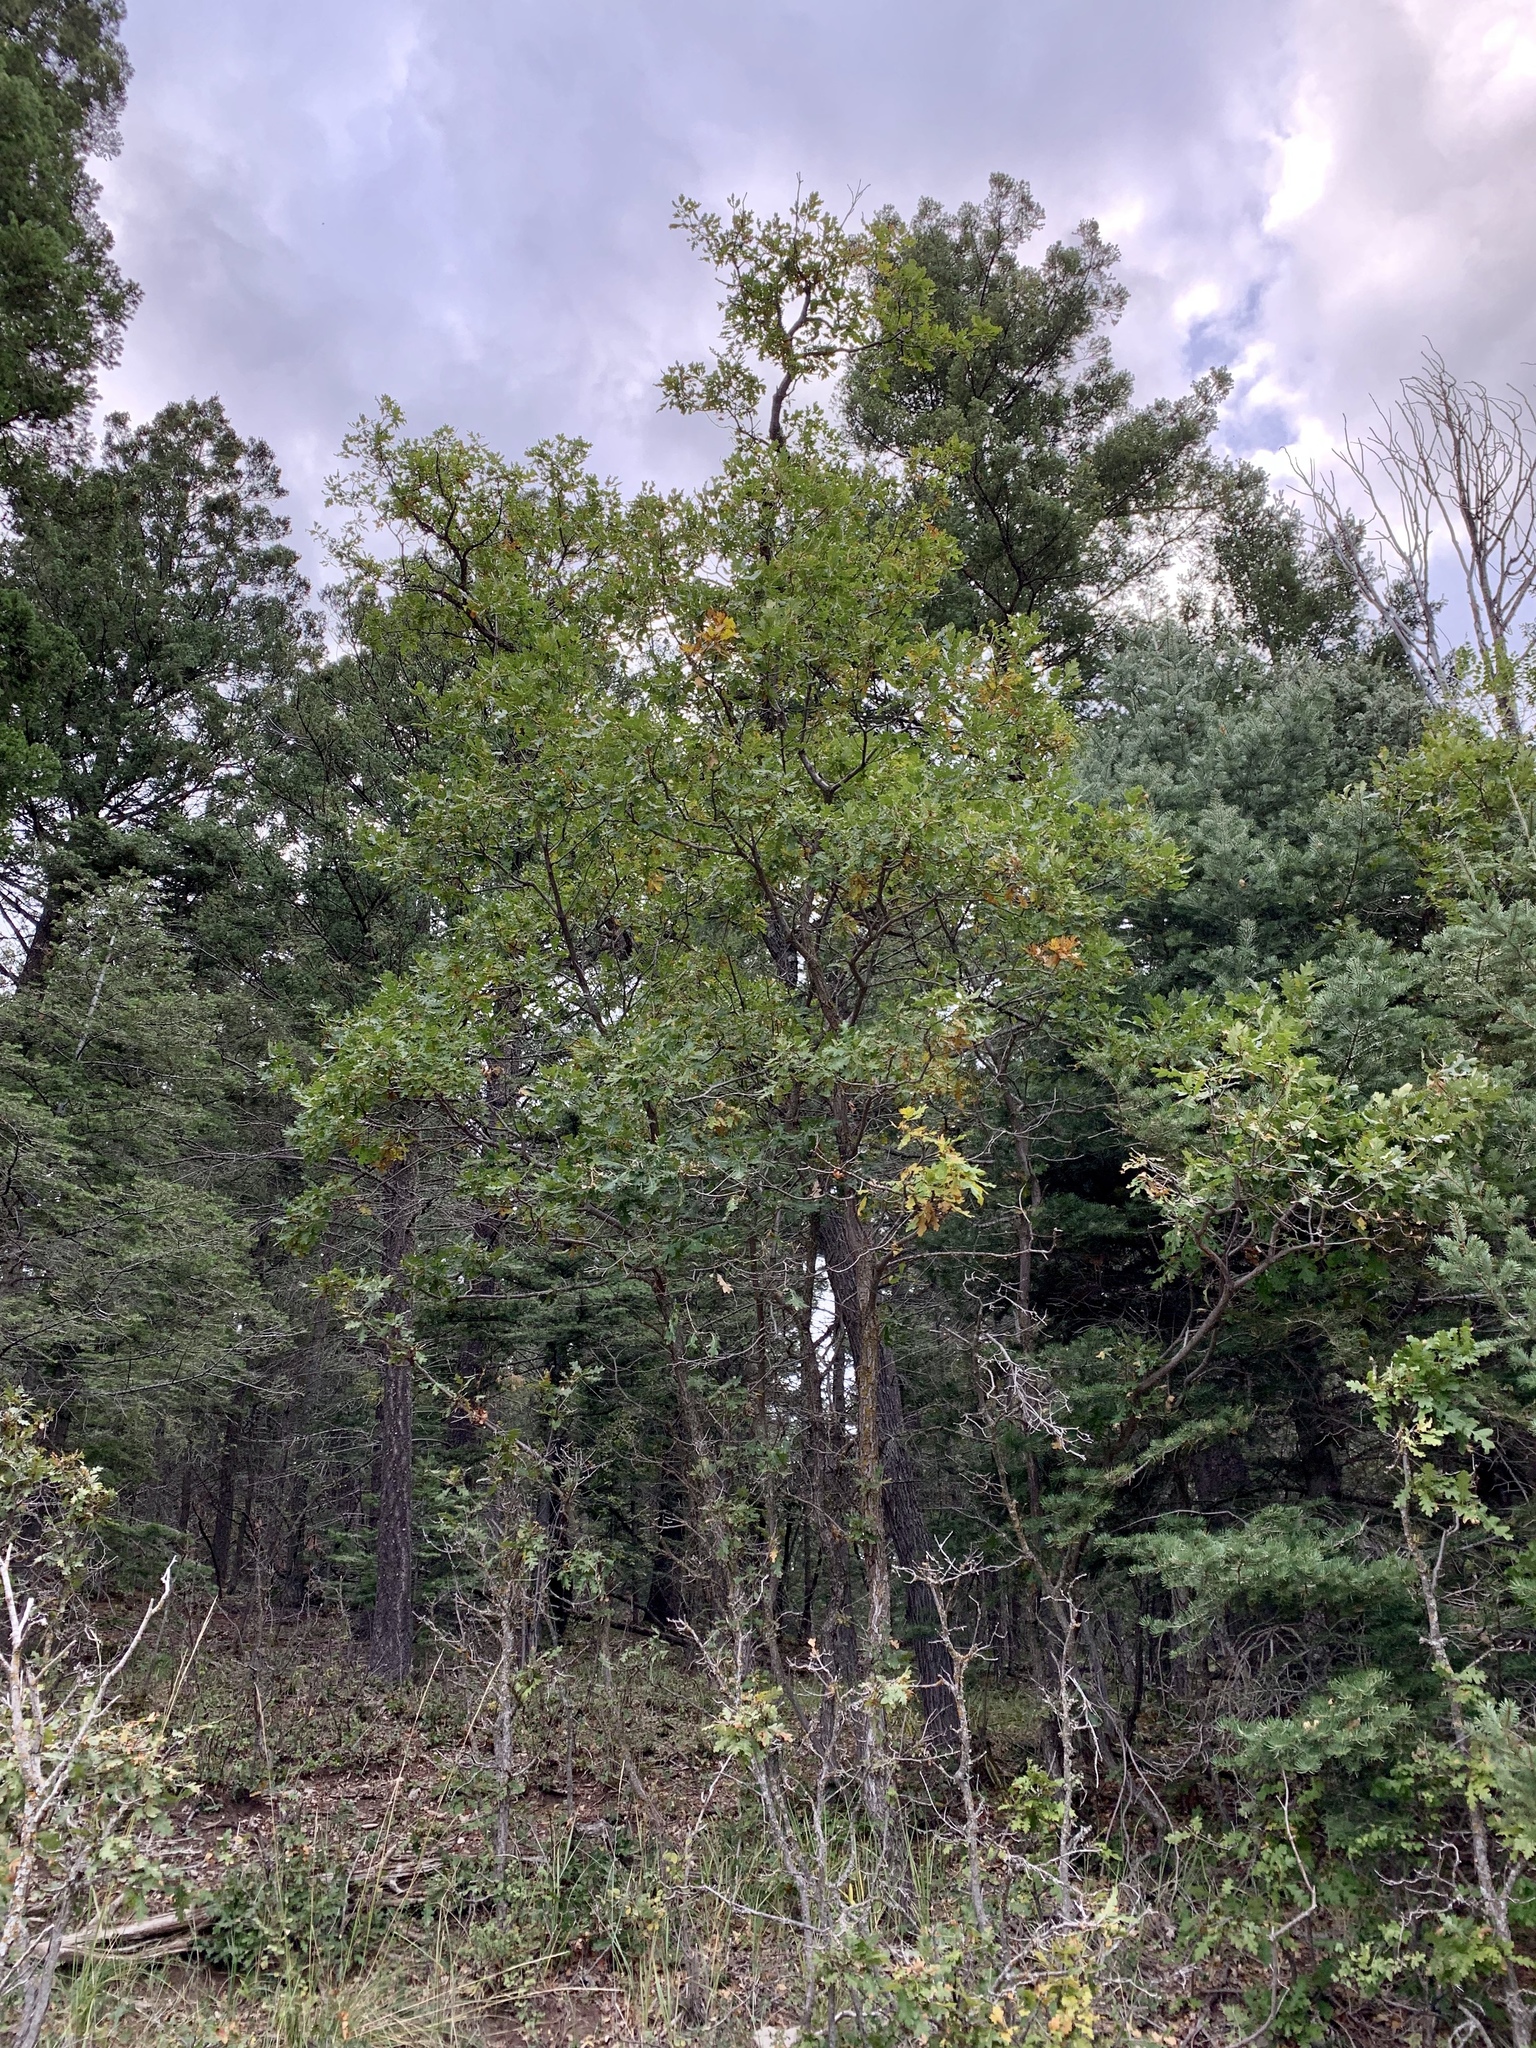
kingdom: Plantae
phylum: Tracheophyta
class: Magnoliopsida
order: Fagales
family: Fagaceae
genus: Quercus
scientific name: Quercus gambelii
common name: Gambel oak
